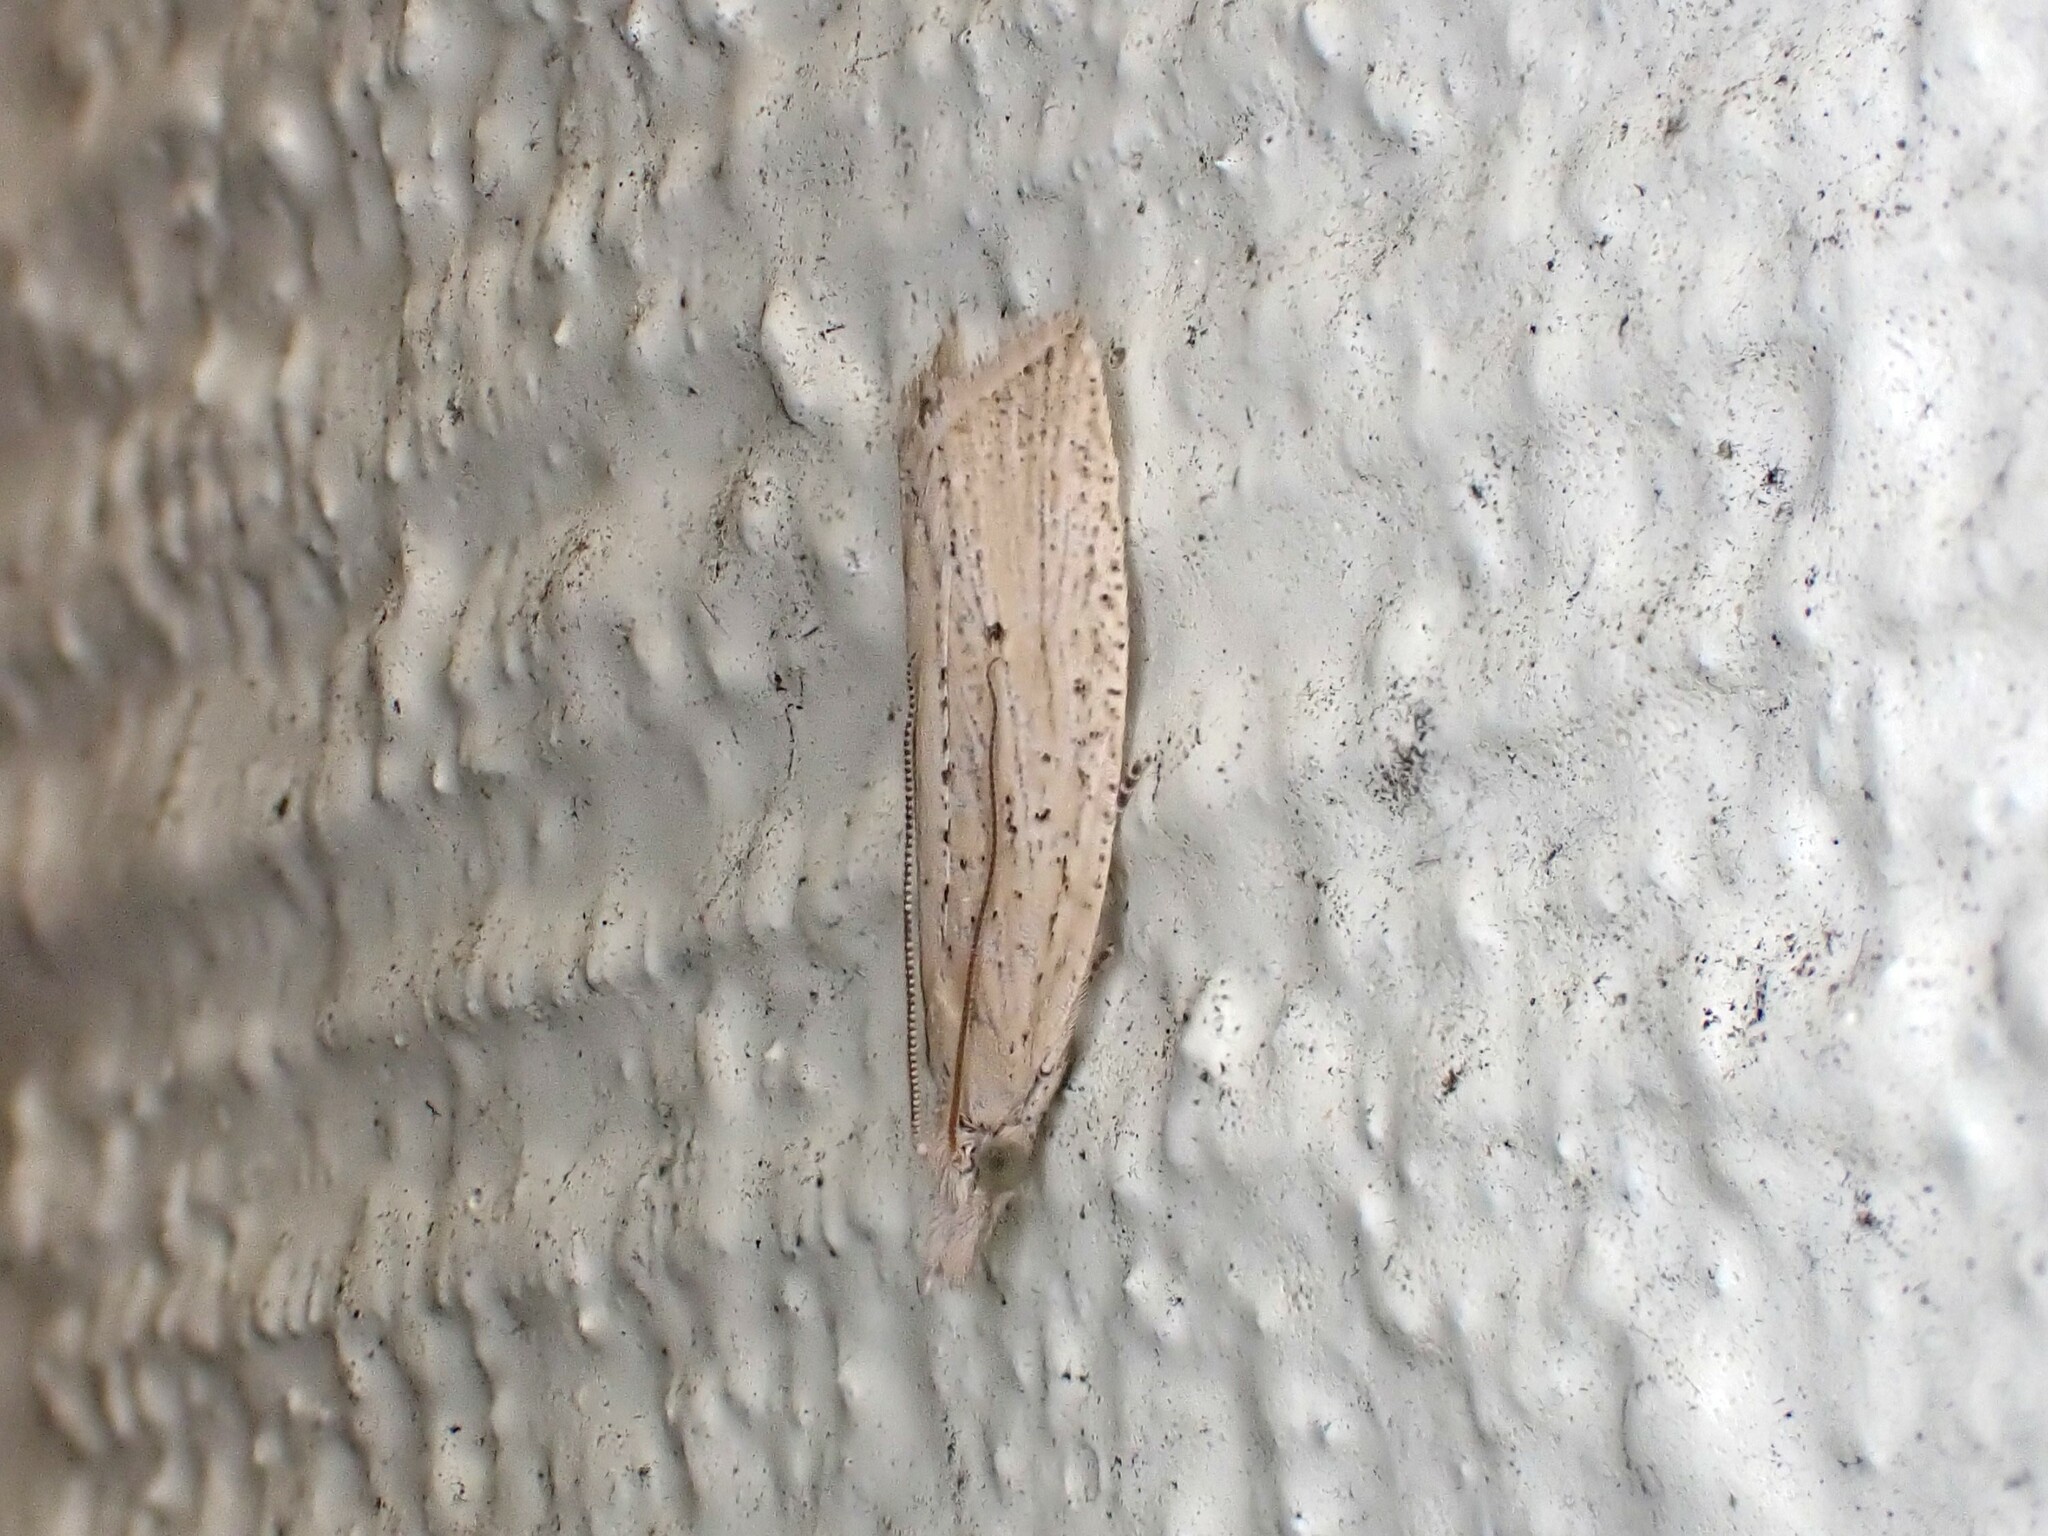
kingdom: Animalia
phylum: Arthropoda
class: Insecta
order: Lepidoptera
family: Tortricidae
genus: Bactra
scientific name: Bactra noteraula
